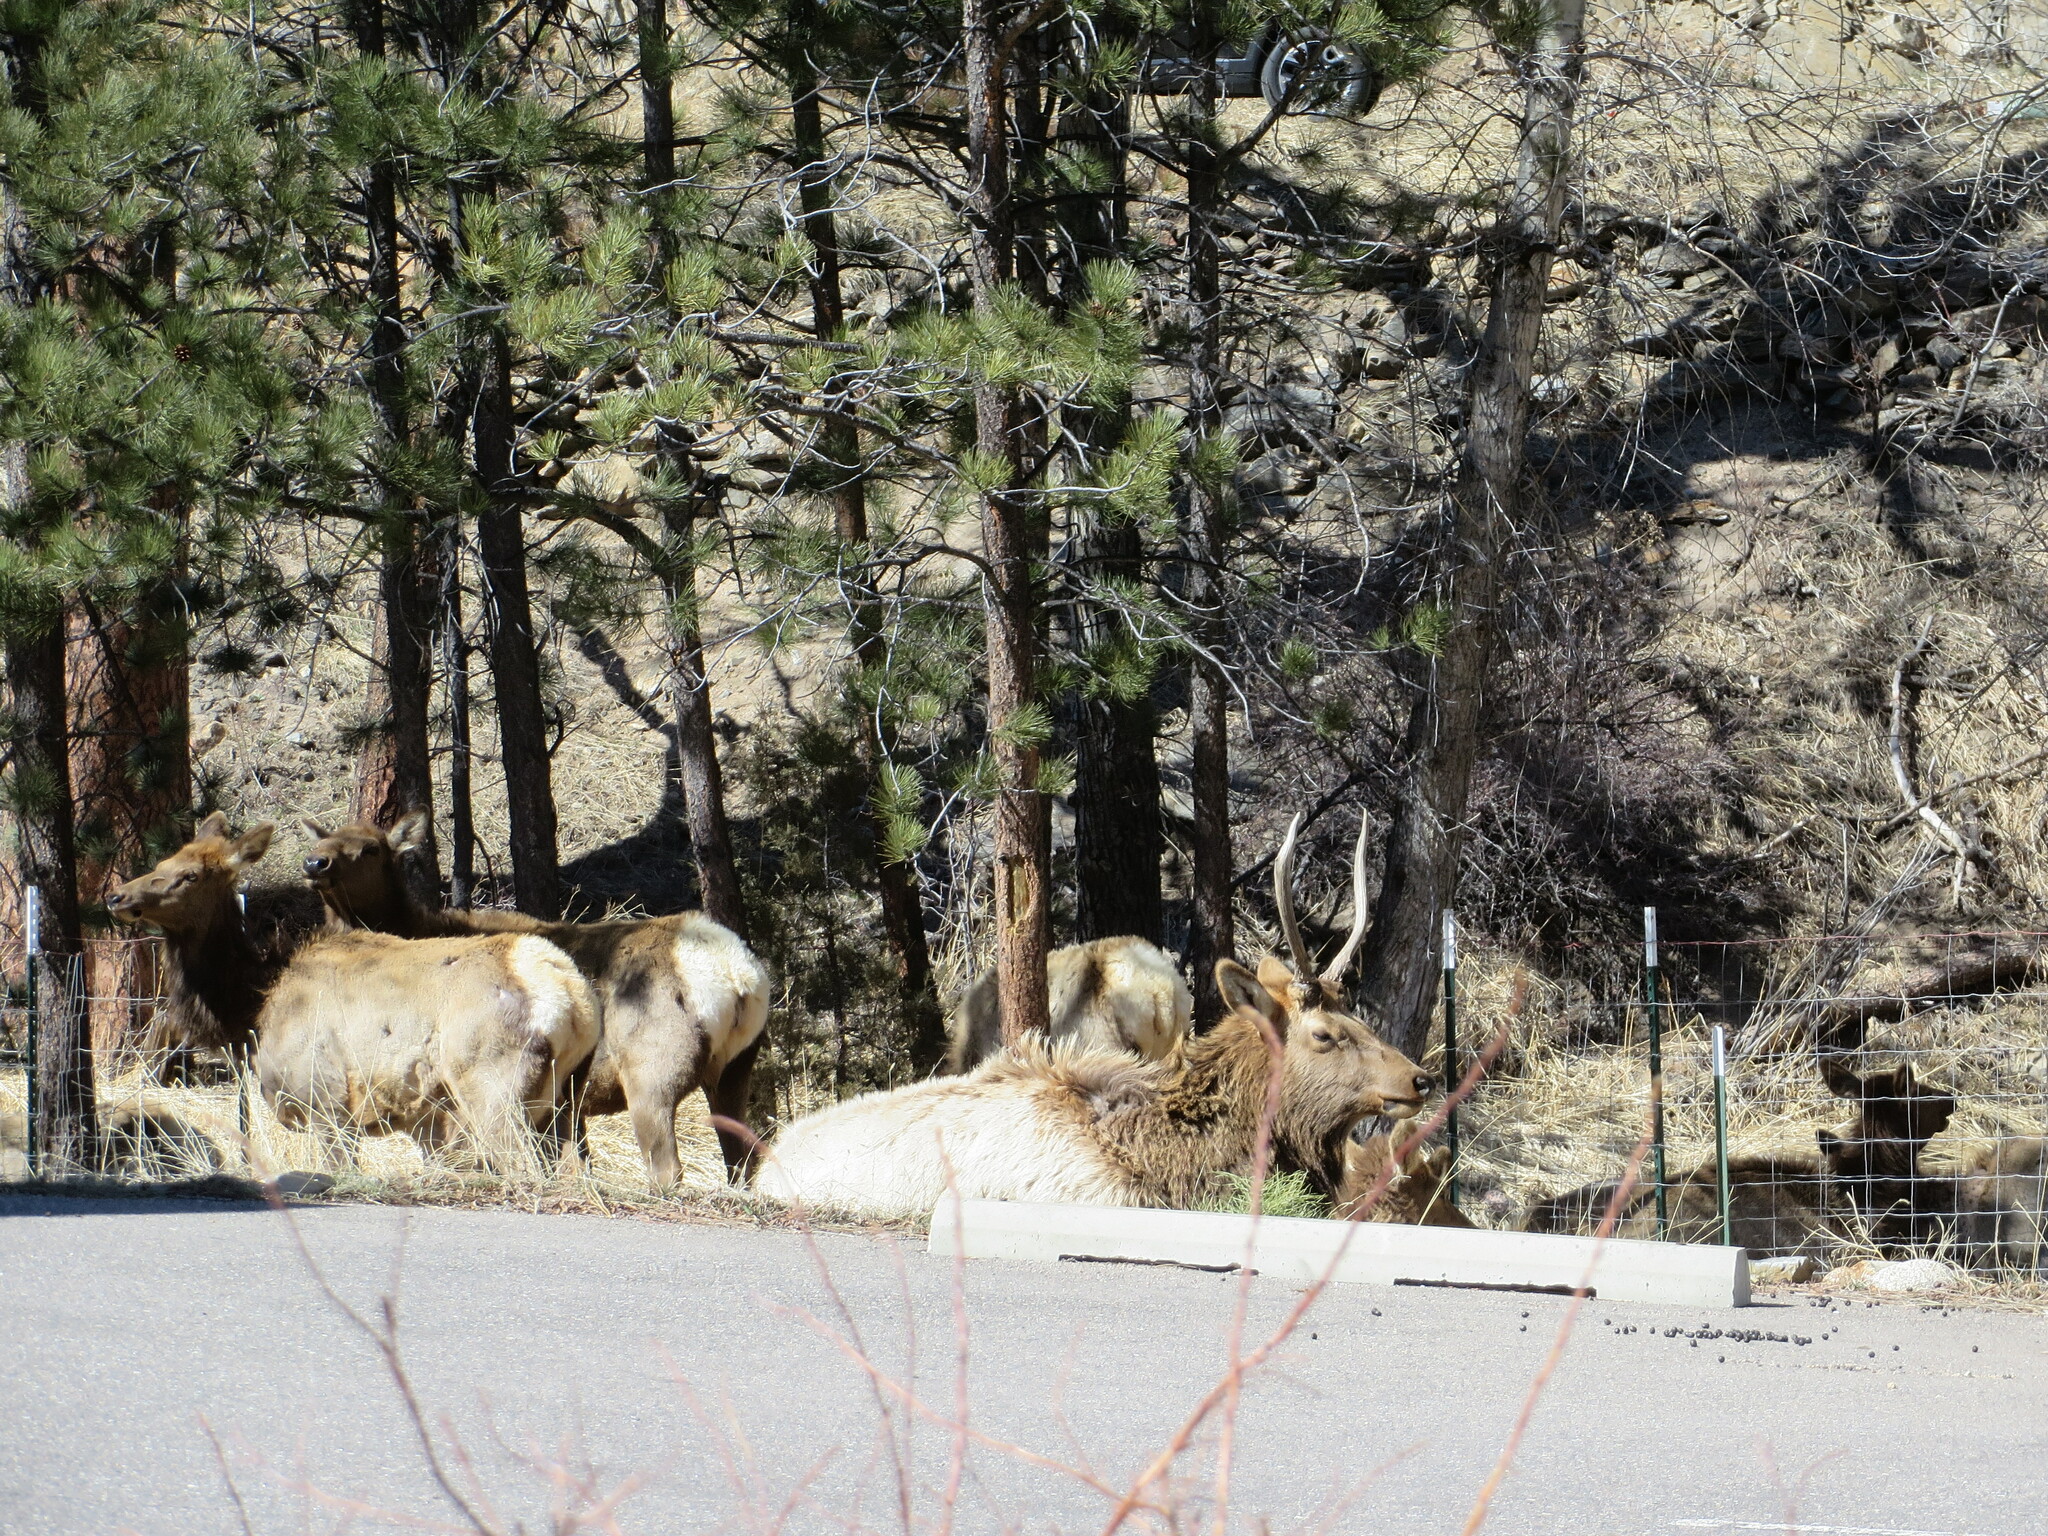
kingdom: Animalia
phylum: Chordata
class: Mammalia
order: Artiodactyla
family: Cervidae
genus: Cervus
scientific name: Cervus elaphus
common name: Red deer
